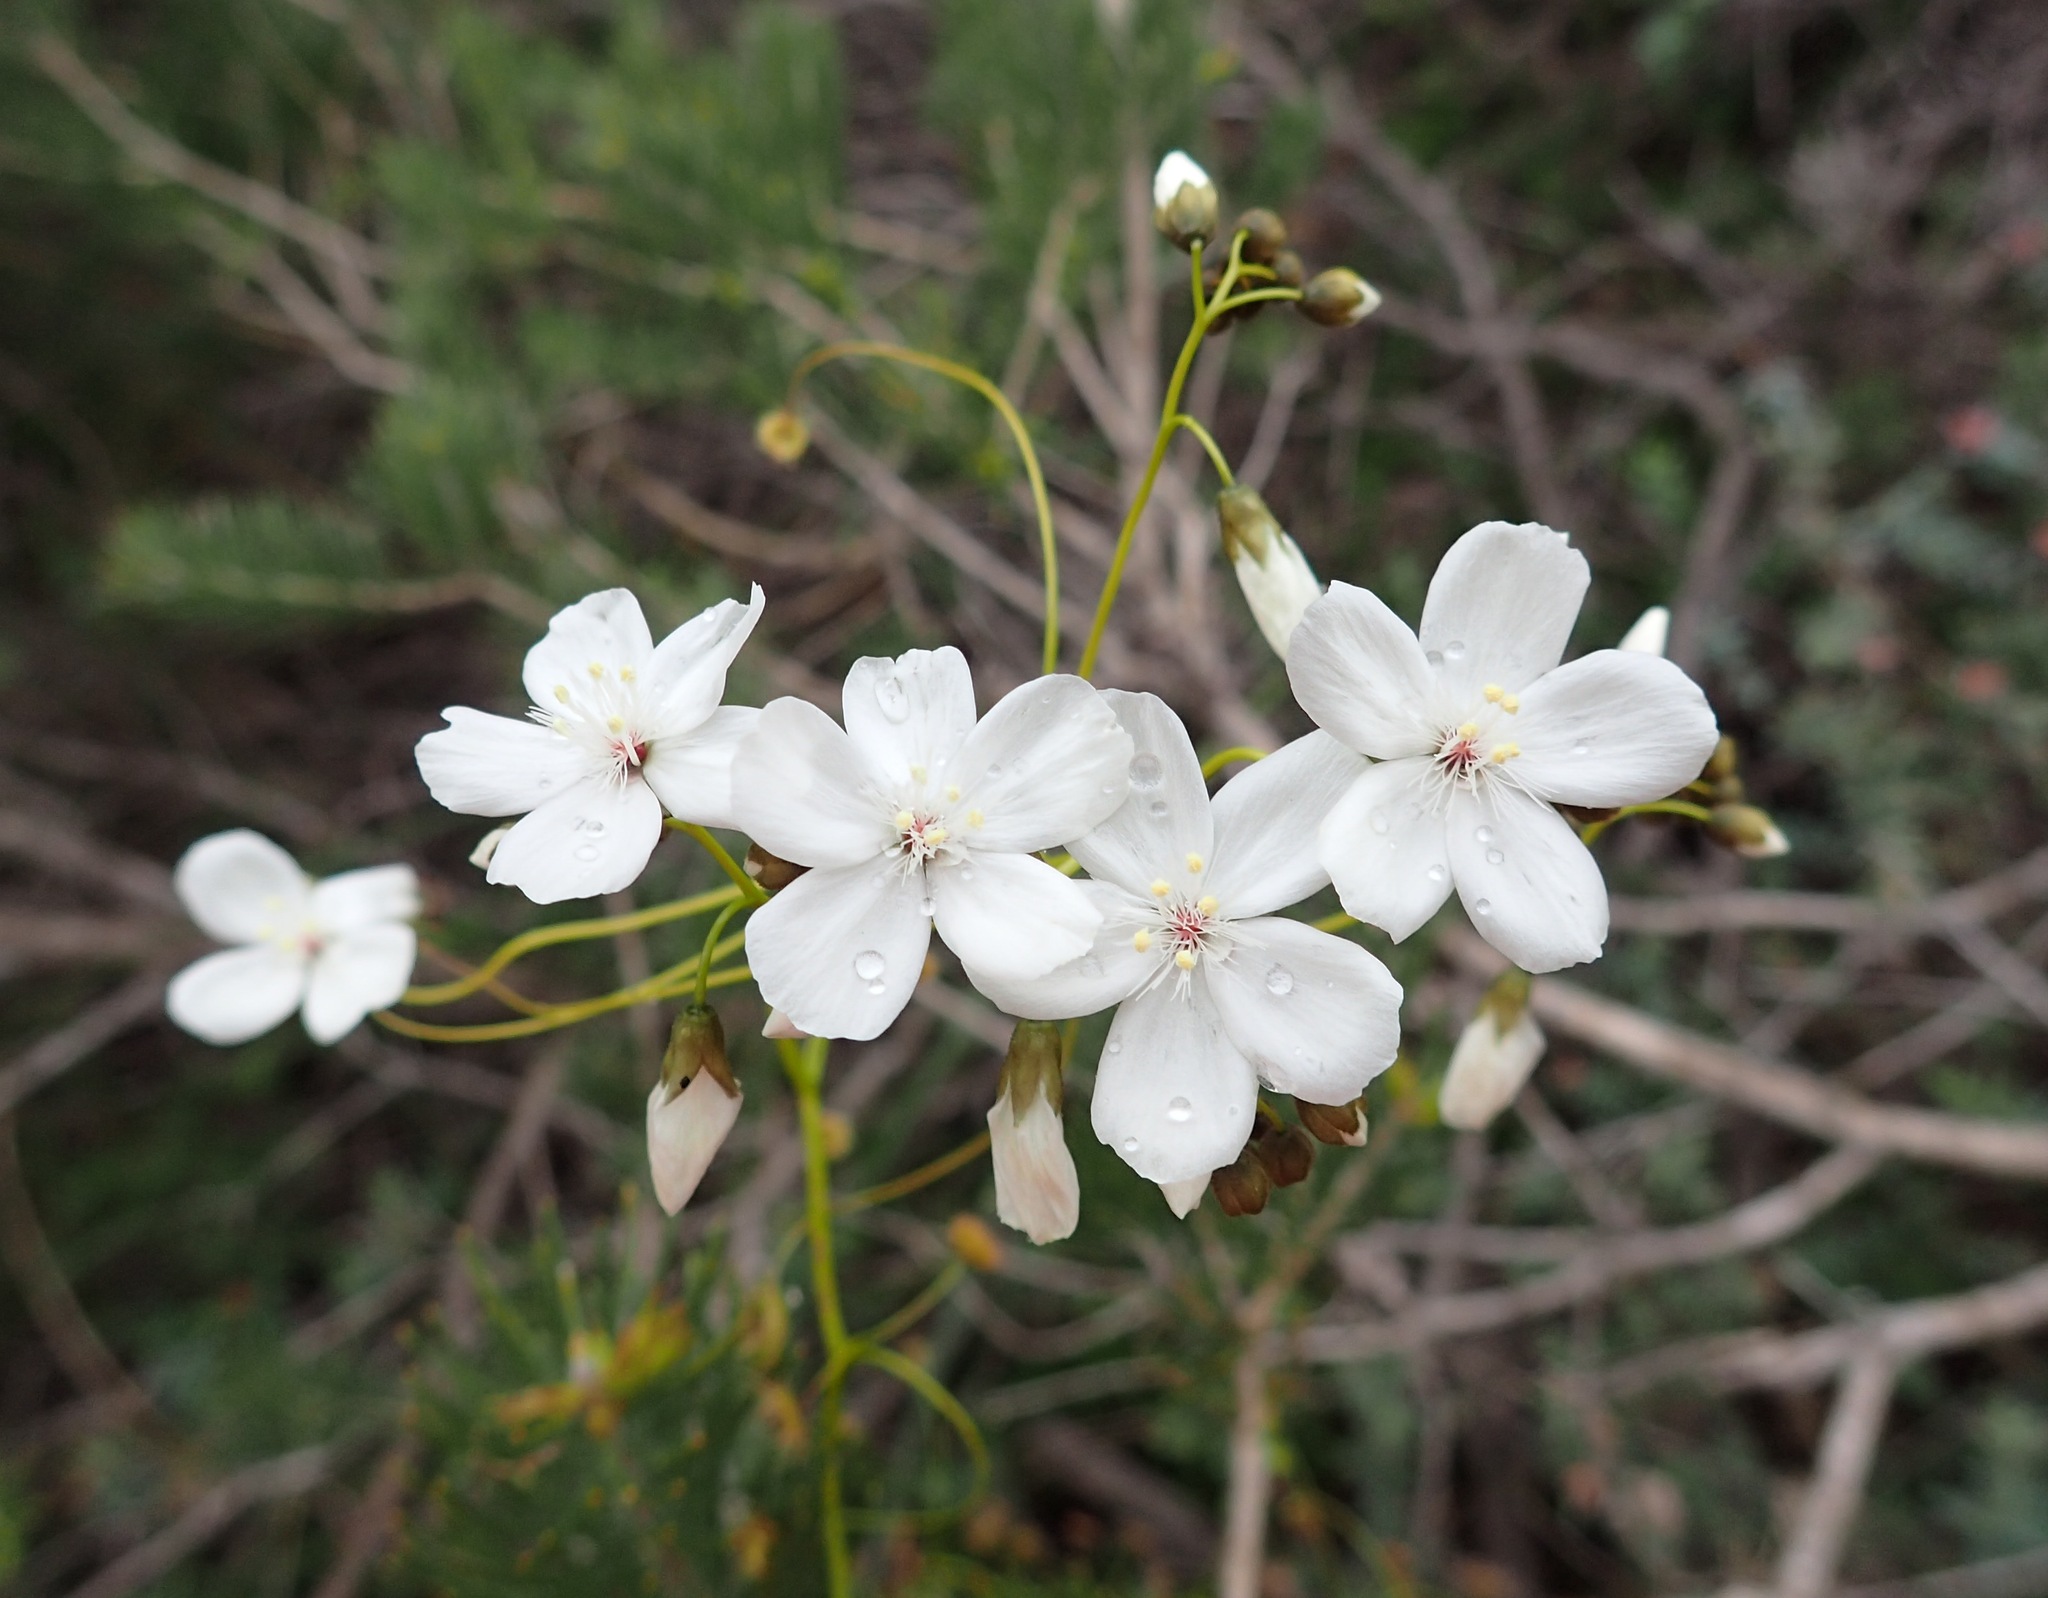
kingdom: Plantae
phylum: Tracheophyta
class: Magnoliopsida
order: Caryophyllales
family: Droseraceae
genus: Drosera
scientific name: Drosera pallida
